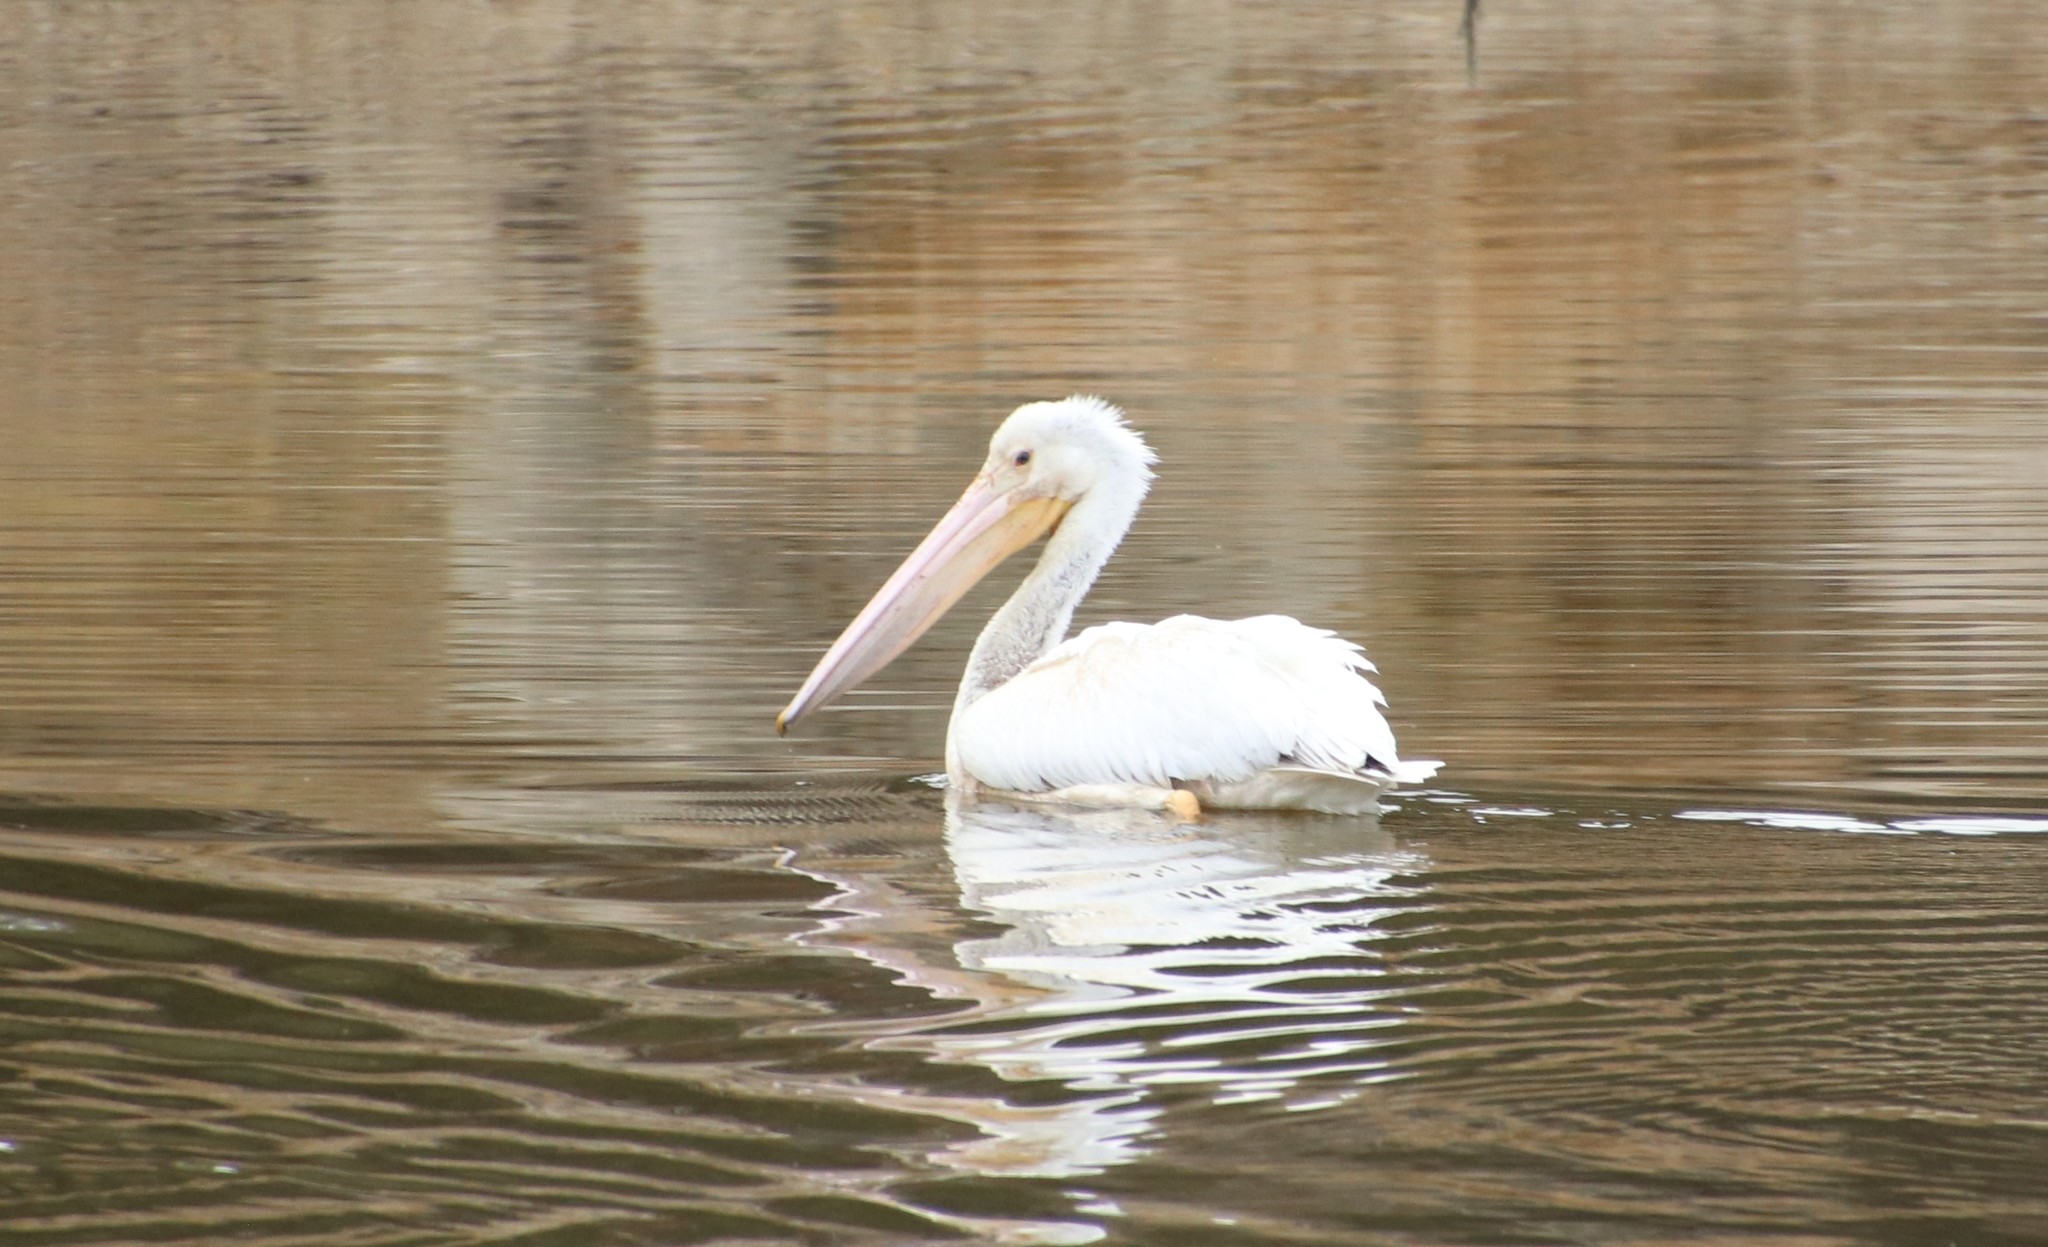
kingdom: Animalia
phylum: Chordata
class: Aves
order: Pelecaniformes
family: Pelecanidae
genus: Pelecanus
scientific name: Pelecanus erythrorhynchos
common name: American white pelican
